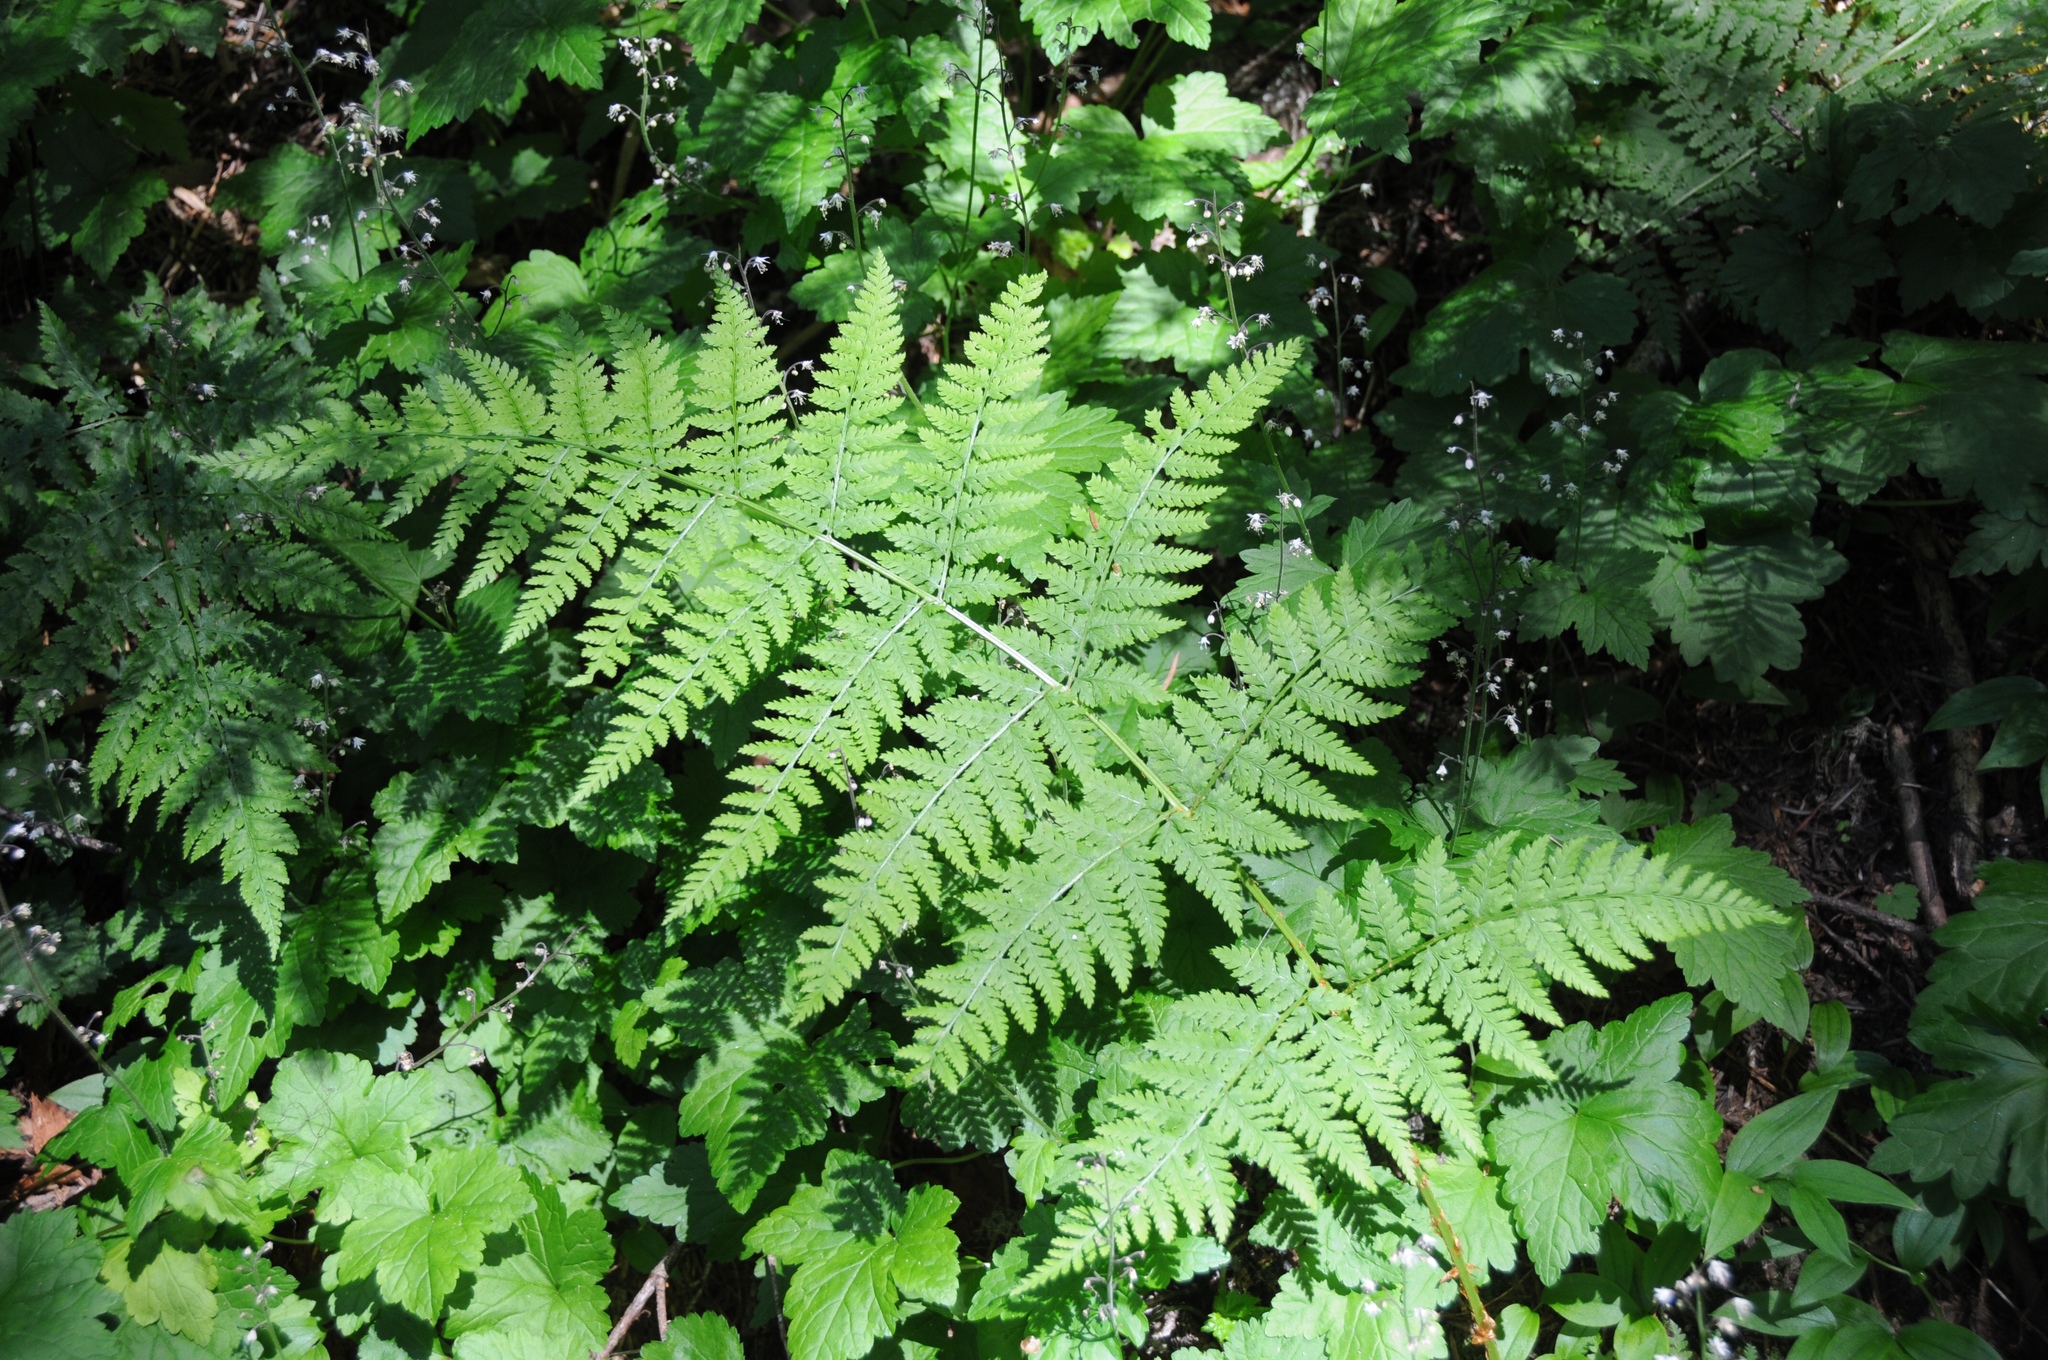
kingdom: Plantae
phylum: Tracheophyta
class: Polypodiopsida
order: Polypodiales
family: Dryopteridaceae
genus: Dryopteris
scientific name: Dryopteris expansa
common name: Northern buckler fern
